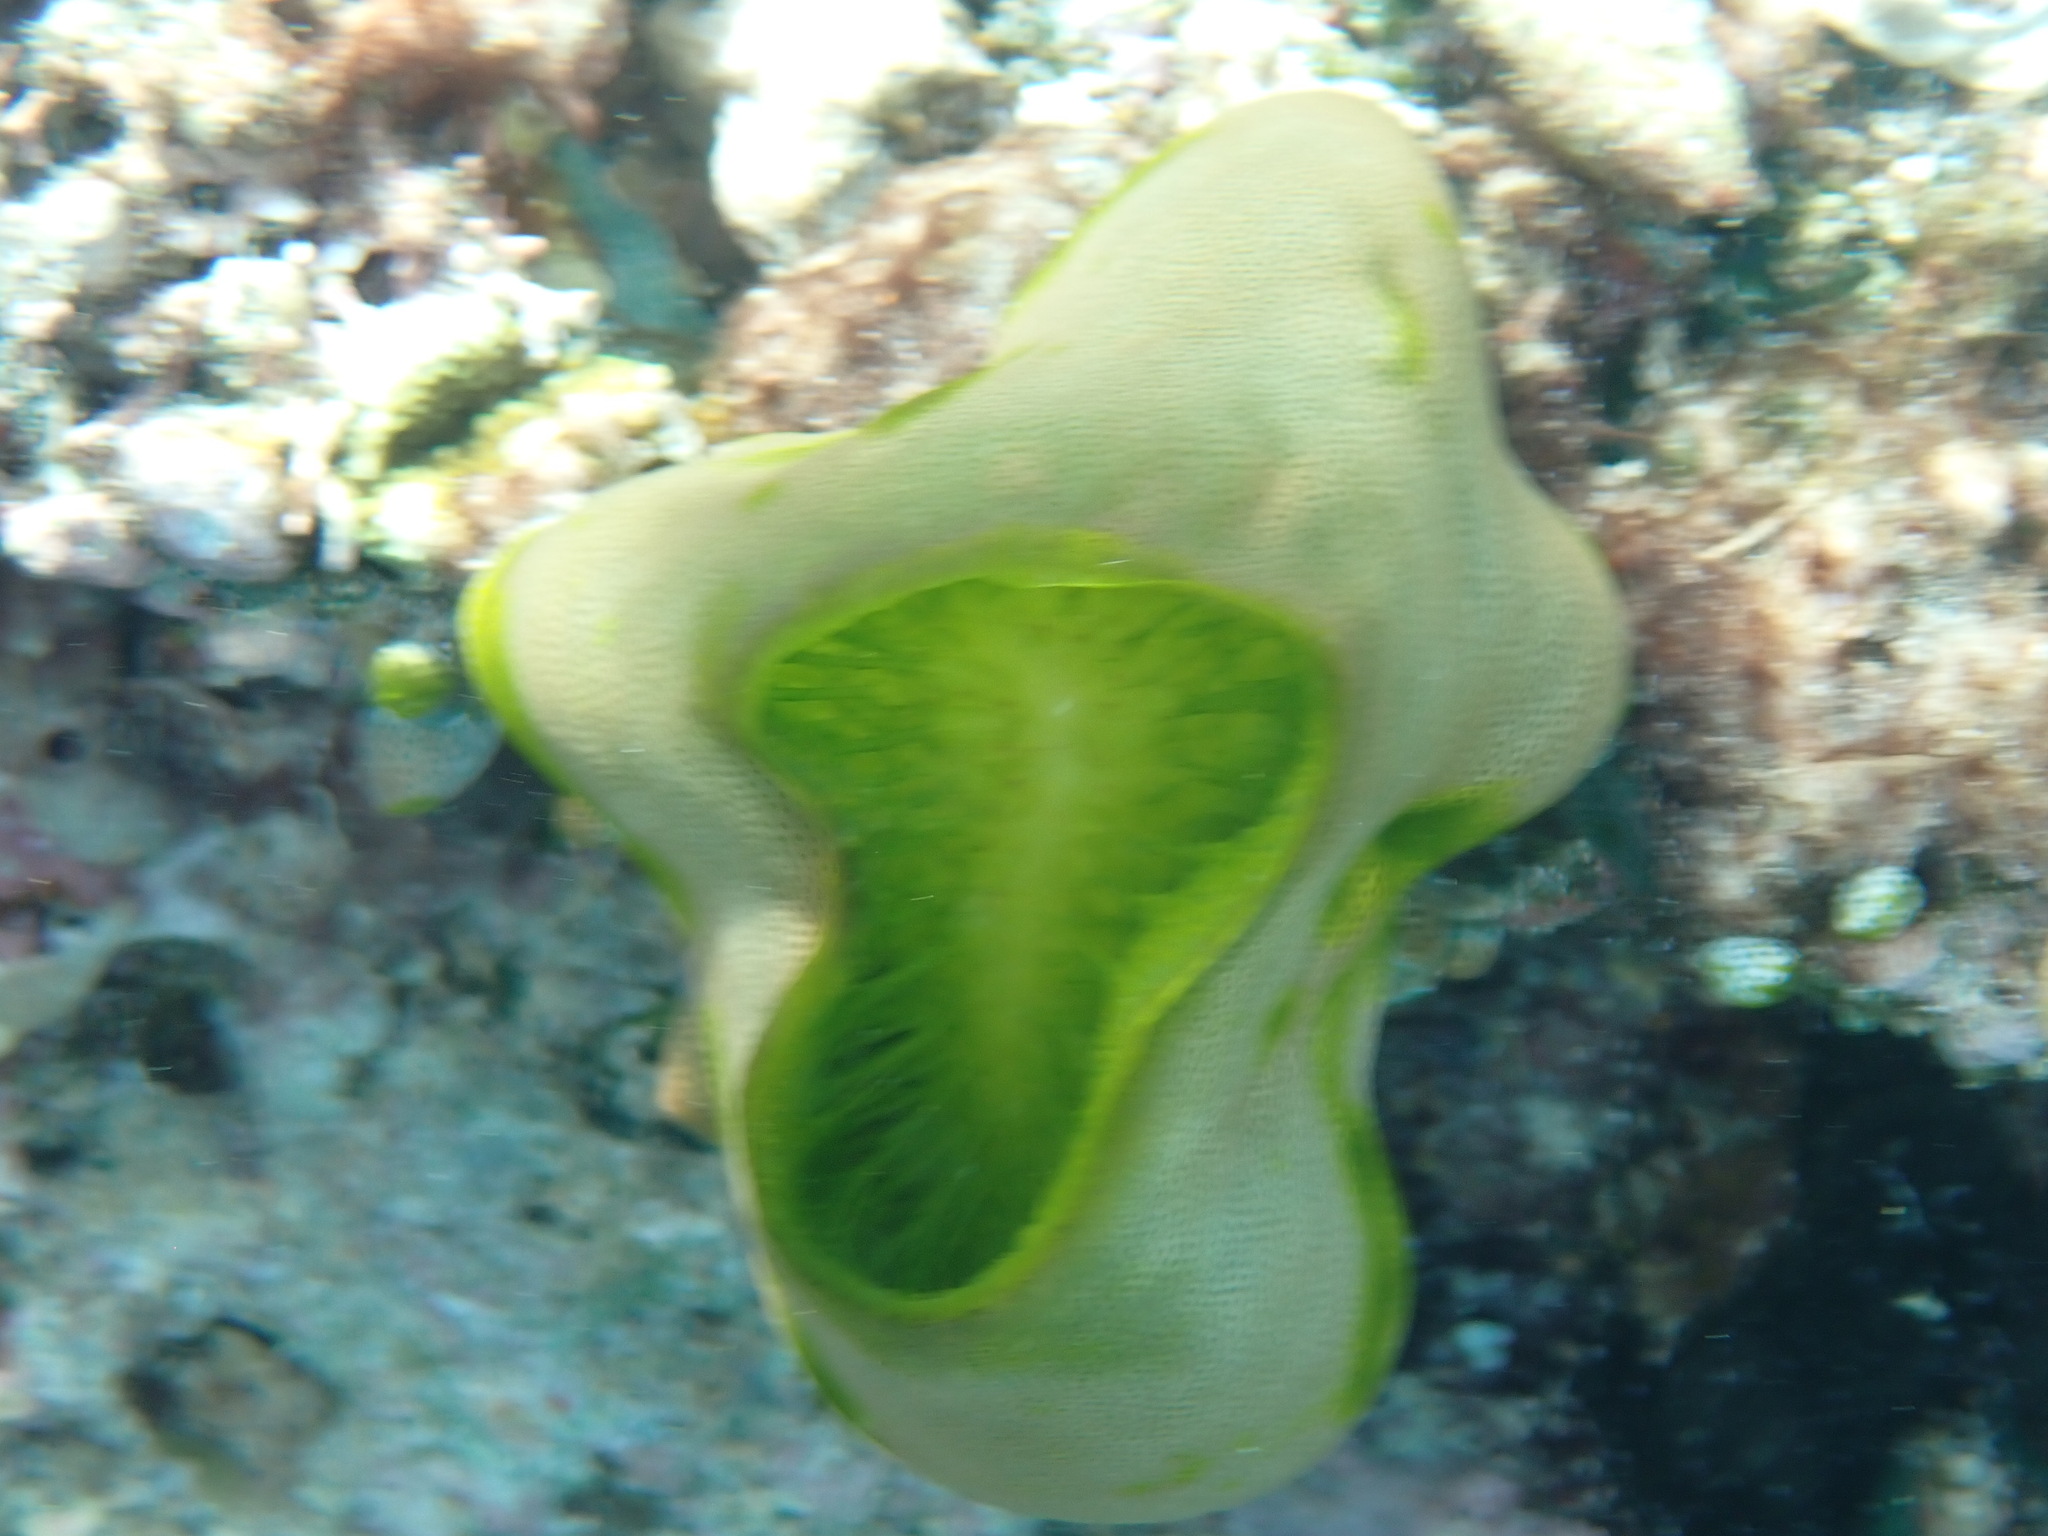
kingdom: Animalia
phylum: Chordata
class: Ascidiacea
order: Aplousobranchia
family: Didemnidae
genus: Didemnum
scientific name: Didemnum molle
